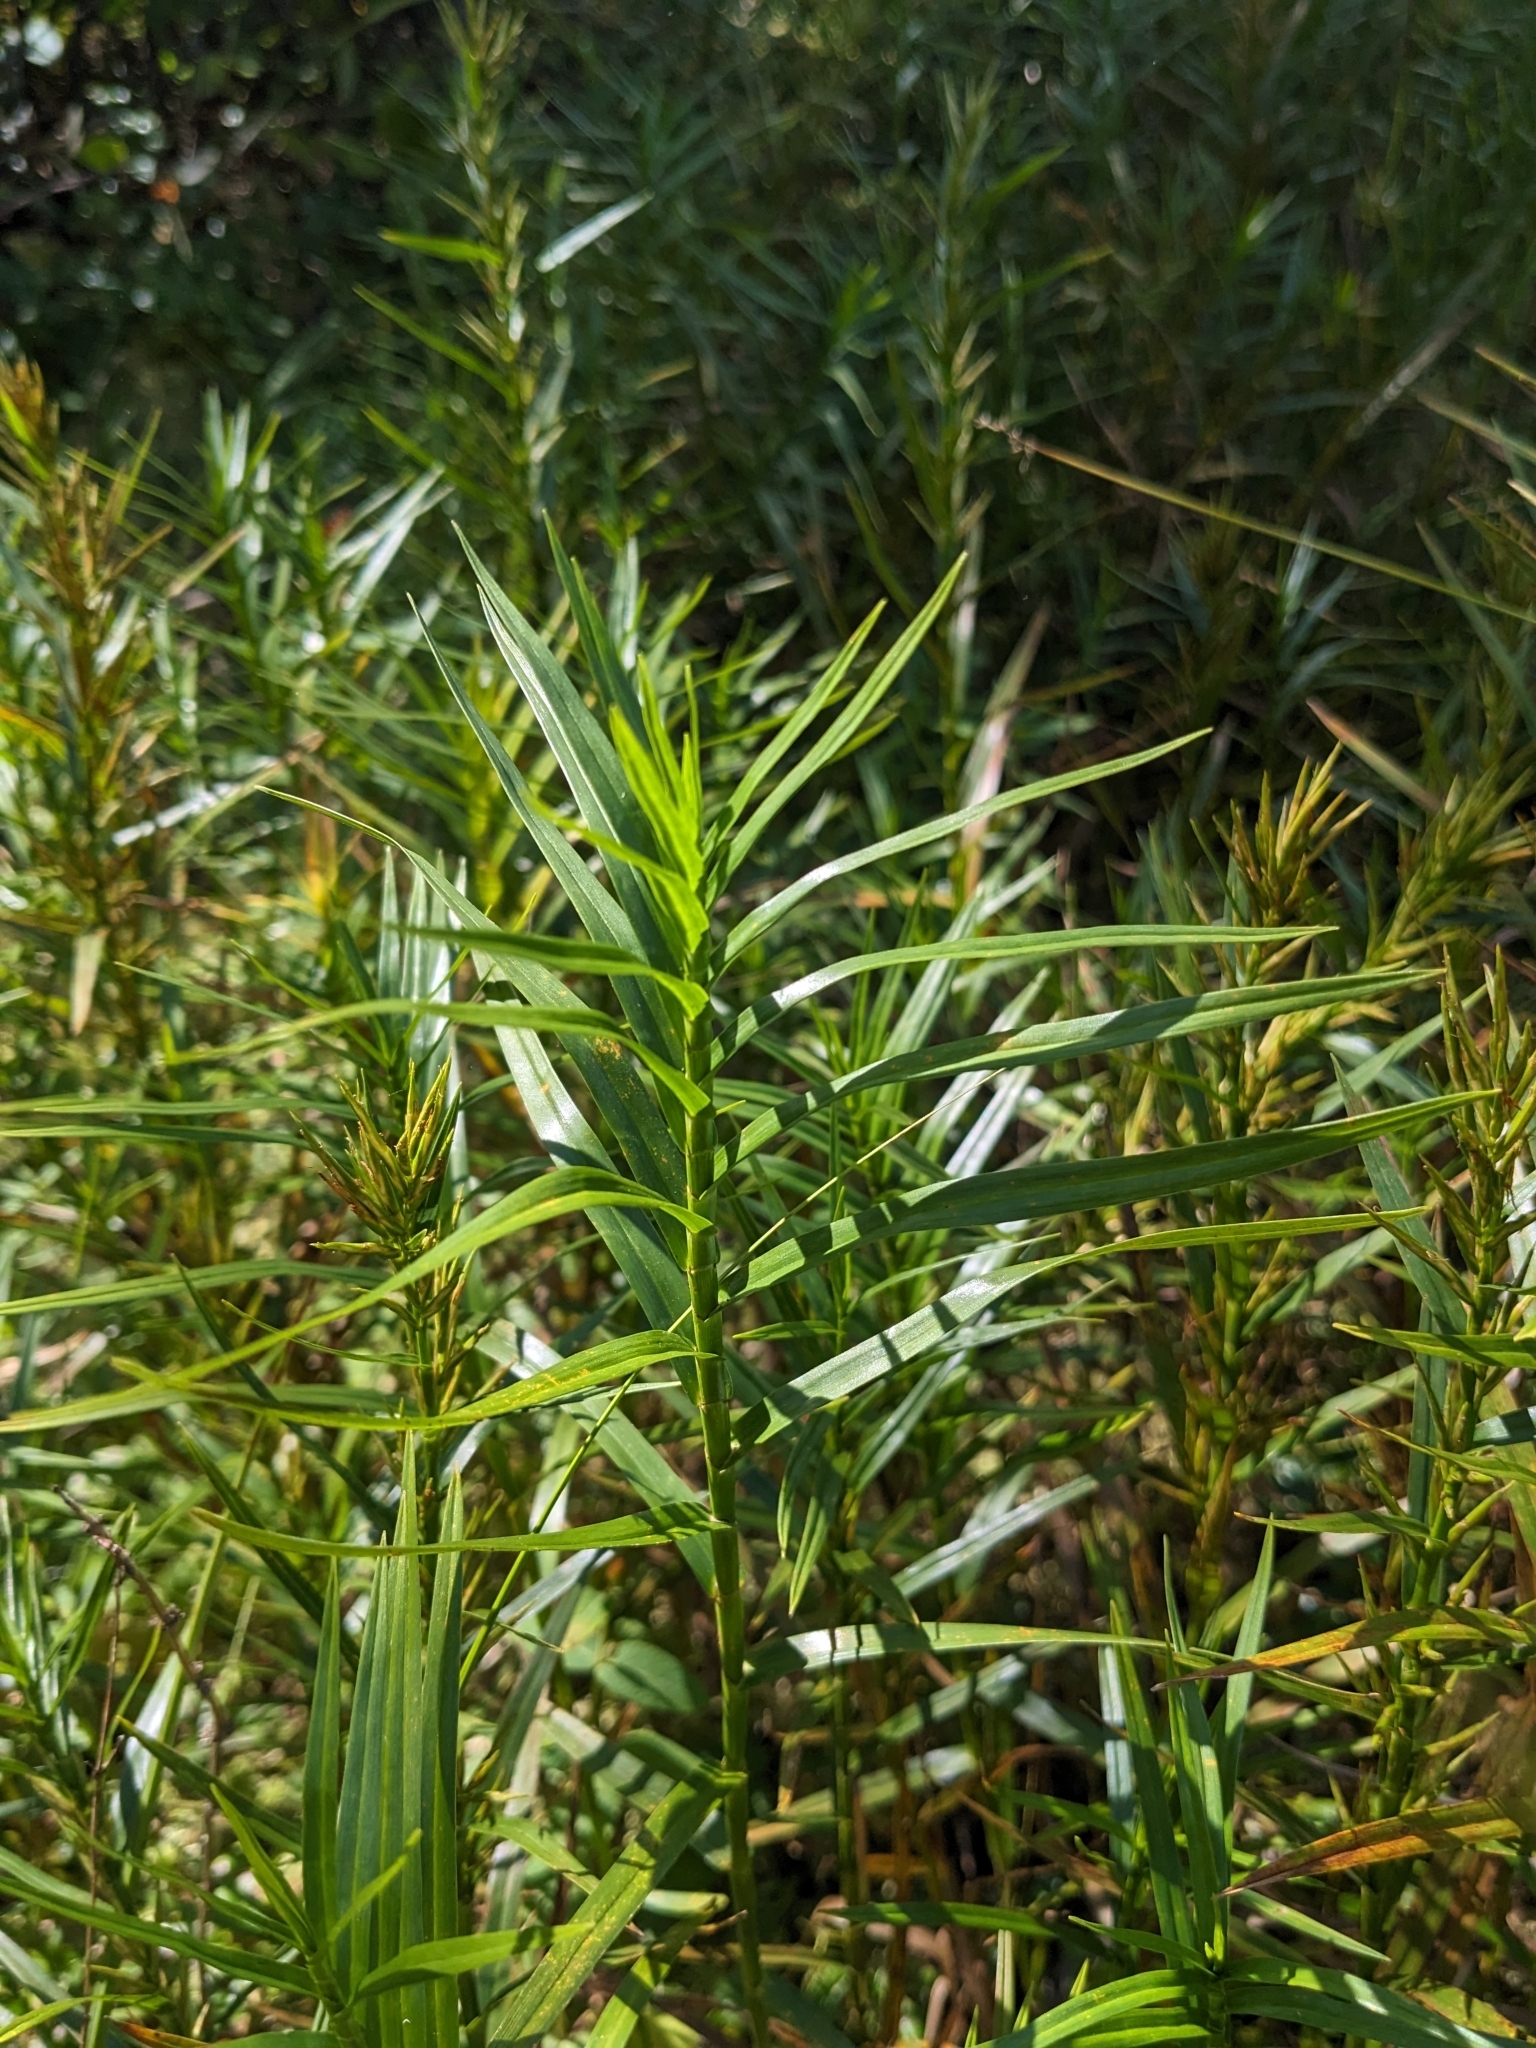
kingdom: Plantae
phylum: Tracheophyta
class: Liliopsida
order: Poales
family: Cyperaceae
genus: Dulichium
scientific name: Dulichium arundinaceum
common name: Three-way sedge
